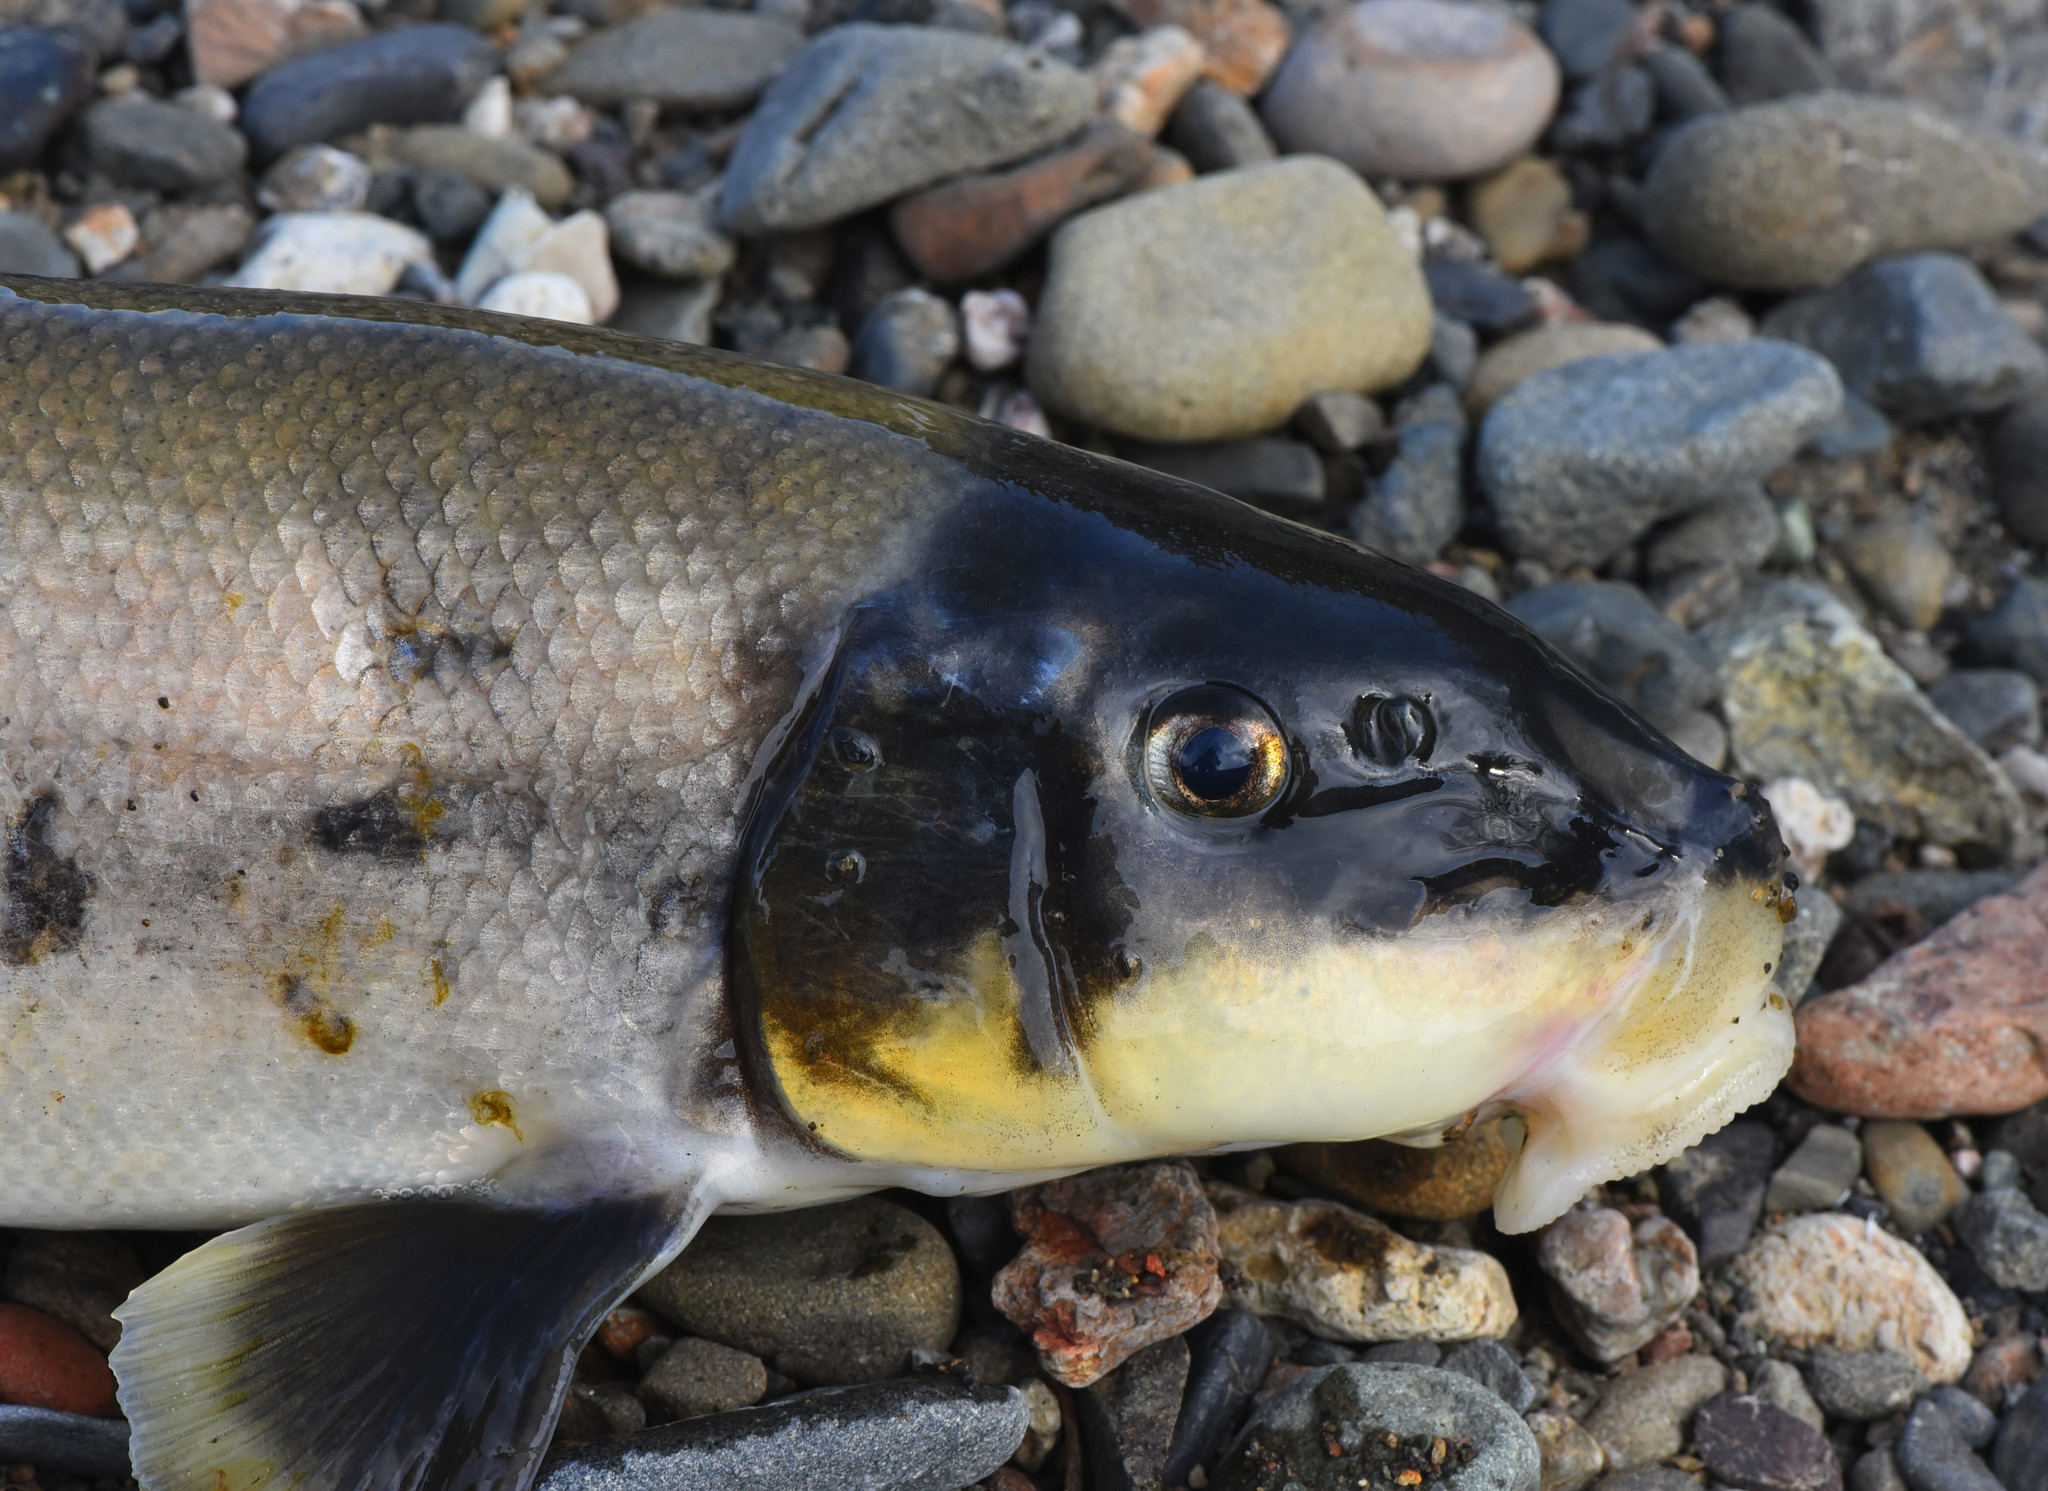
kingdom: Animalia
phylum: Chordata
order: Cypriniformes
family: Catostomidae
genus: Catostomus
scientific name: Catostomus occidentalis
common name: Goose lake sucker
